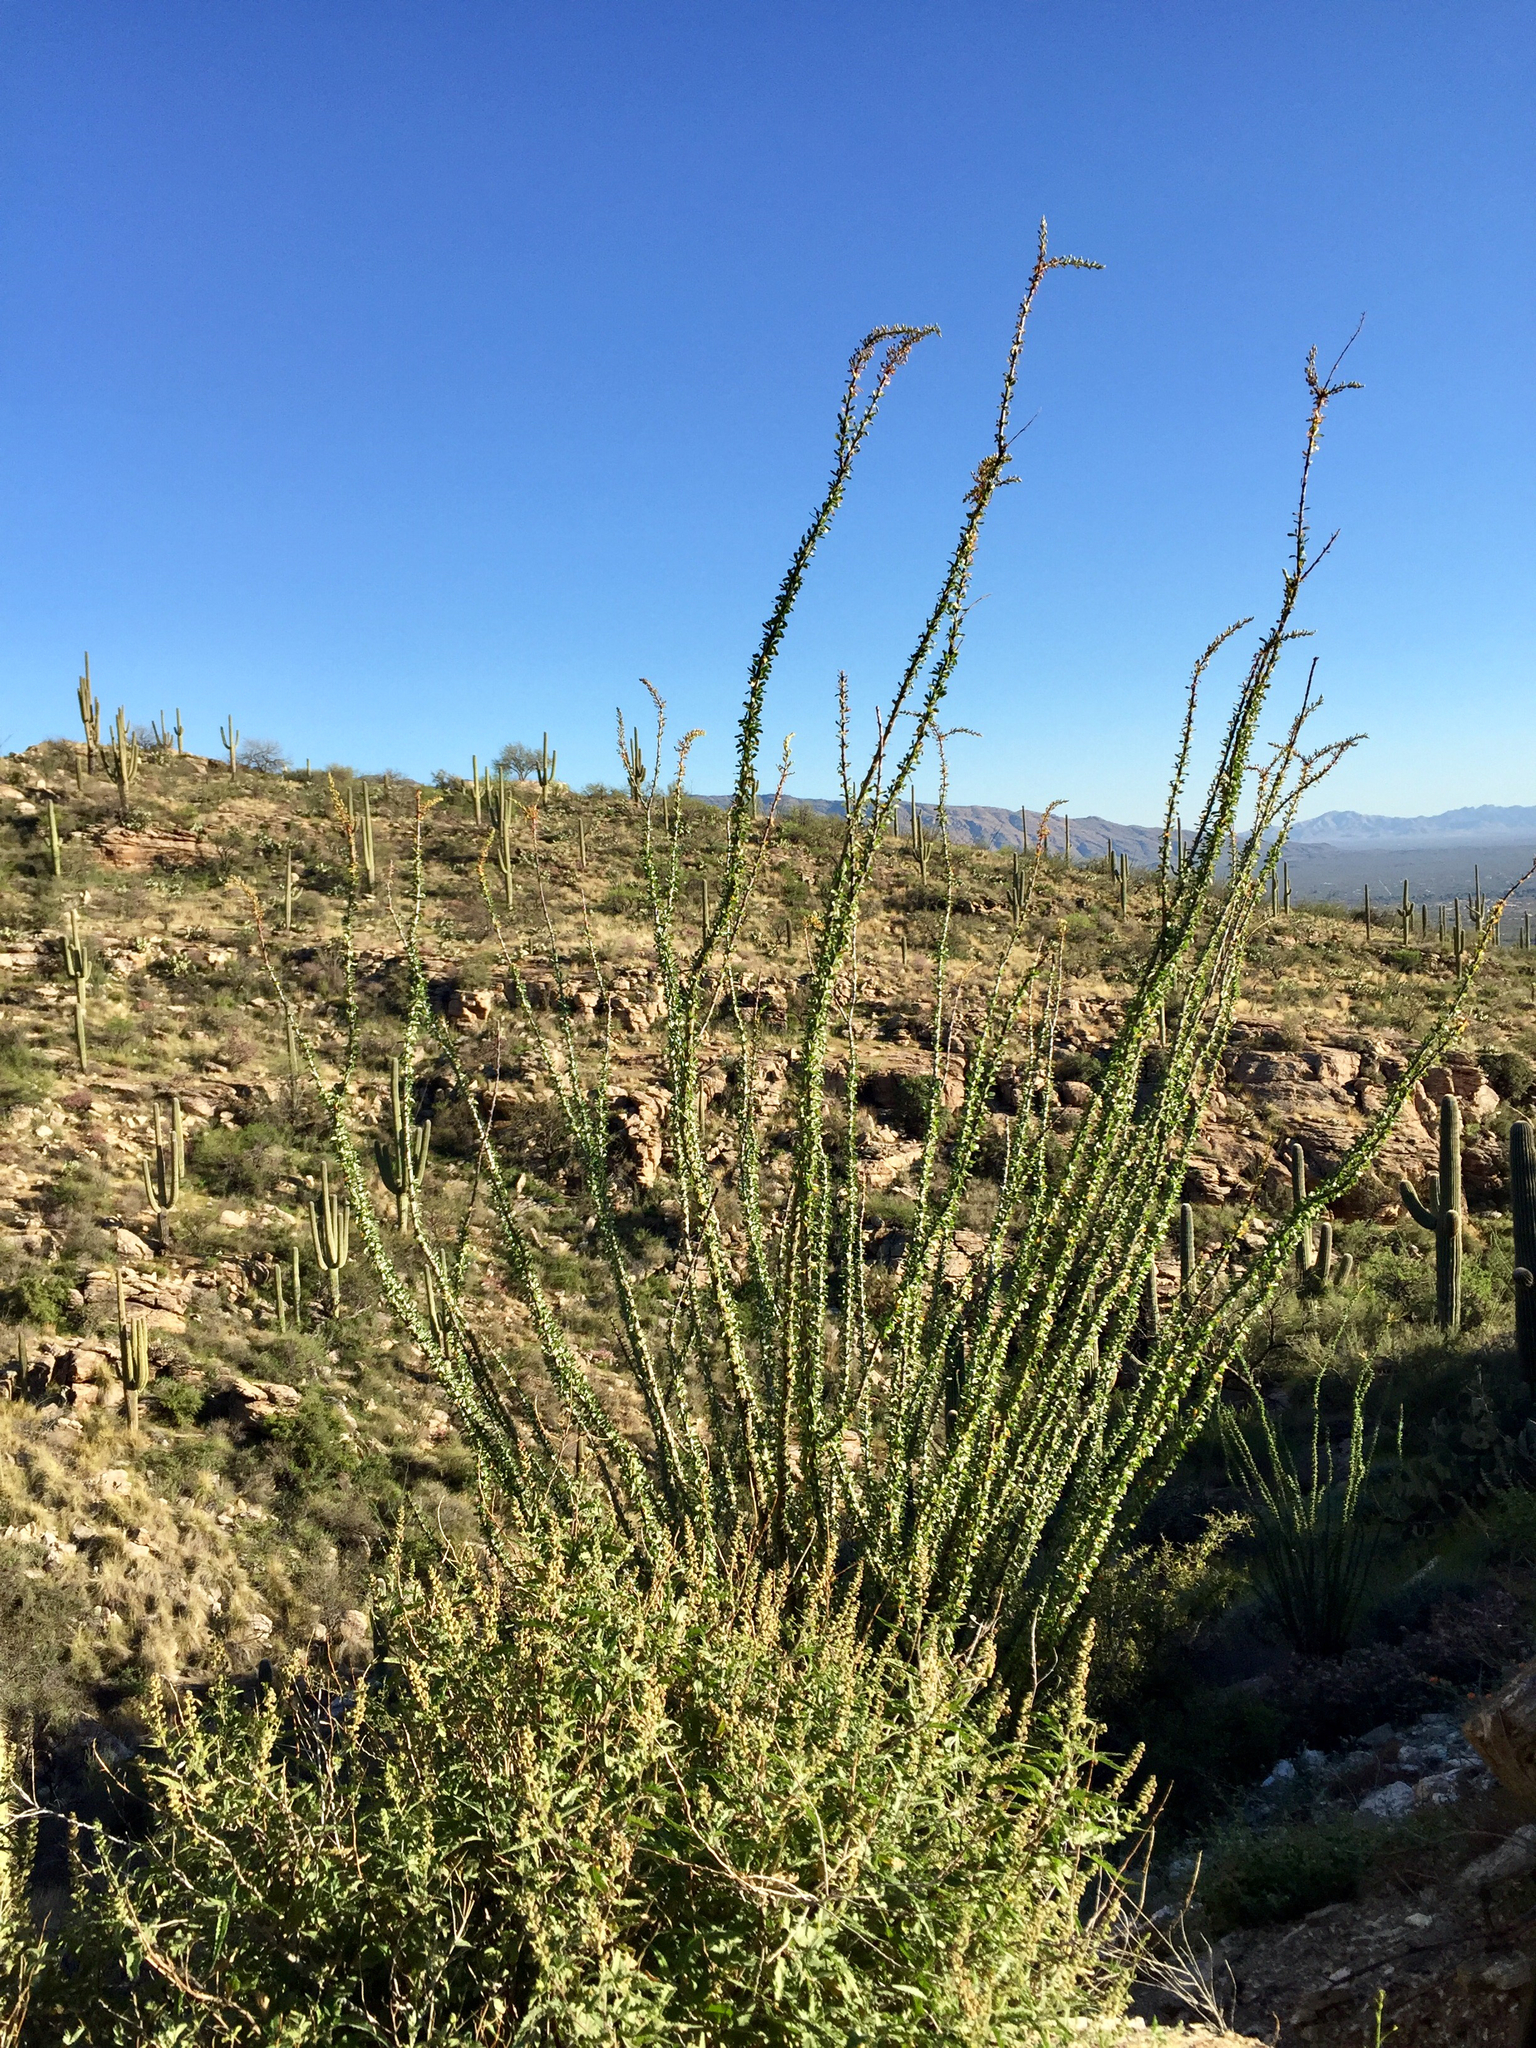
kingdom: Plantae
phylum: Tracheophyta
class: Magnoliopsida
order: Ericales
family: Fouquieriaceae
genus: Fouquieria
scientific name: Fouquieria splendens
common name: Vine-cactus
